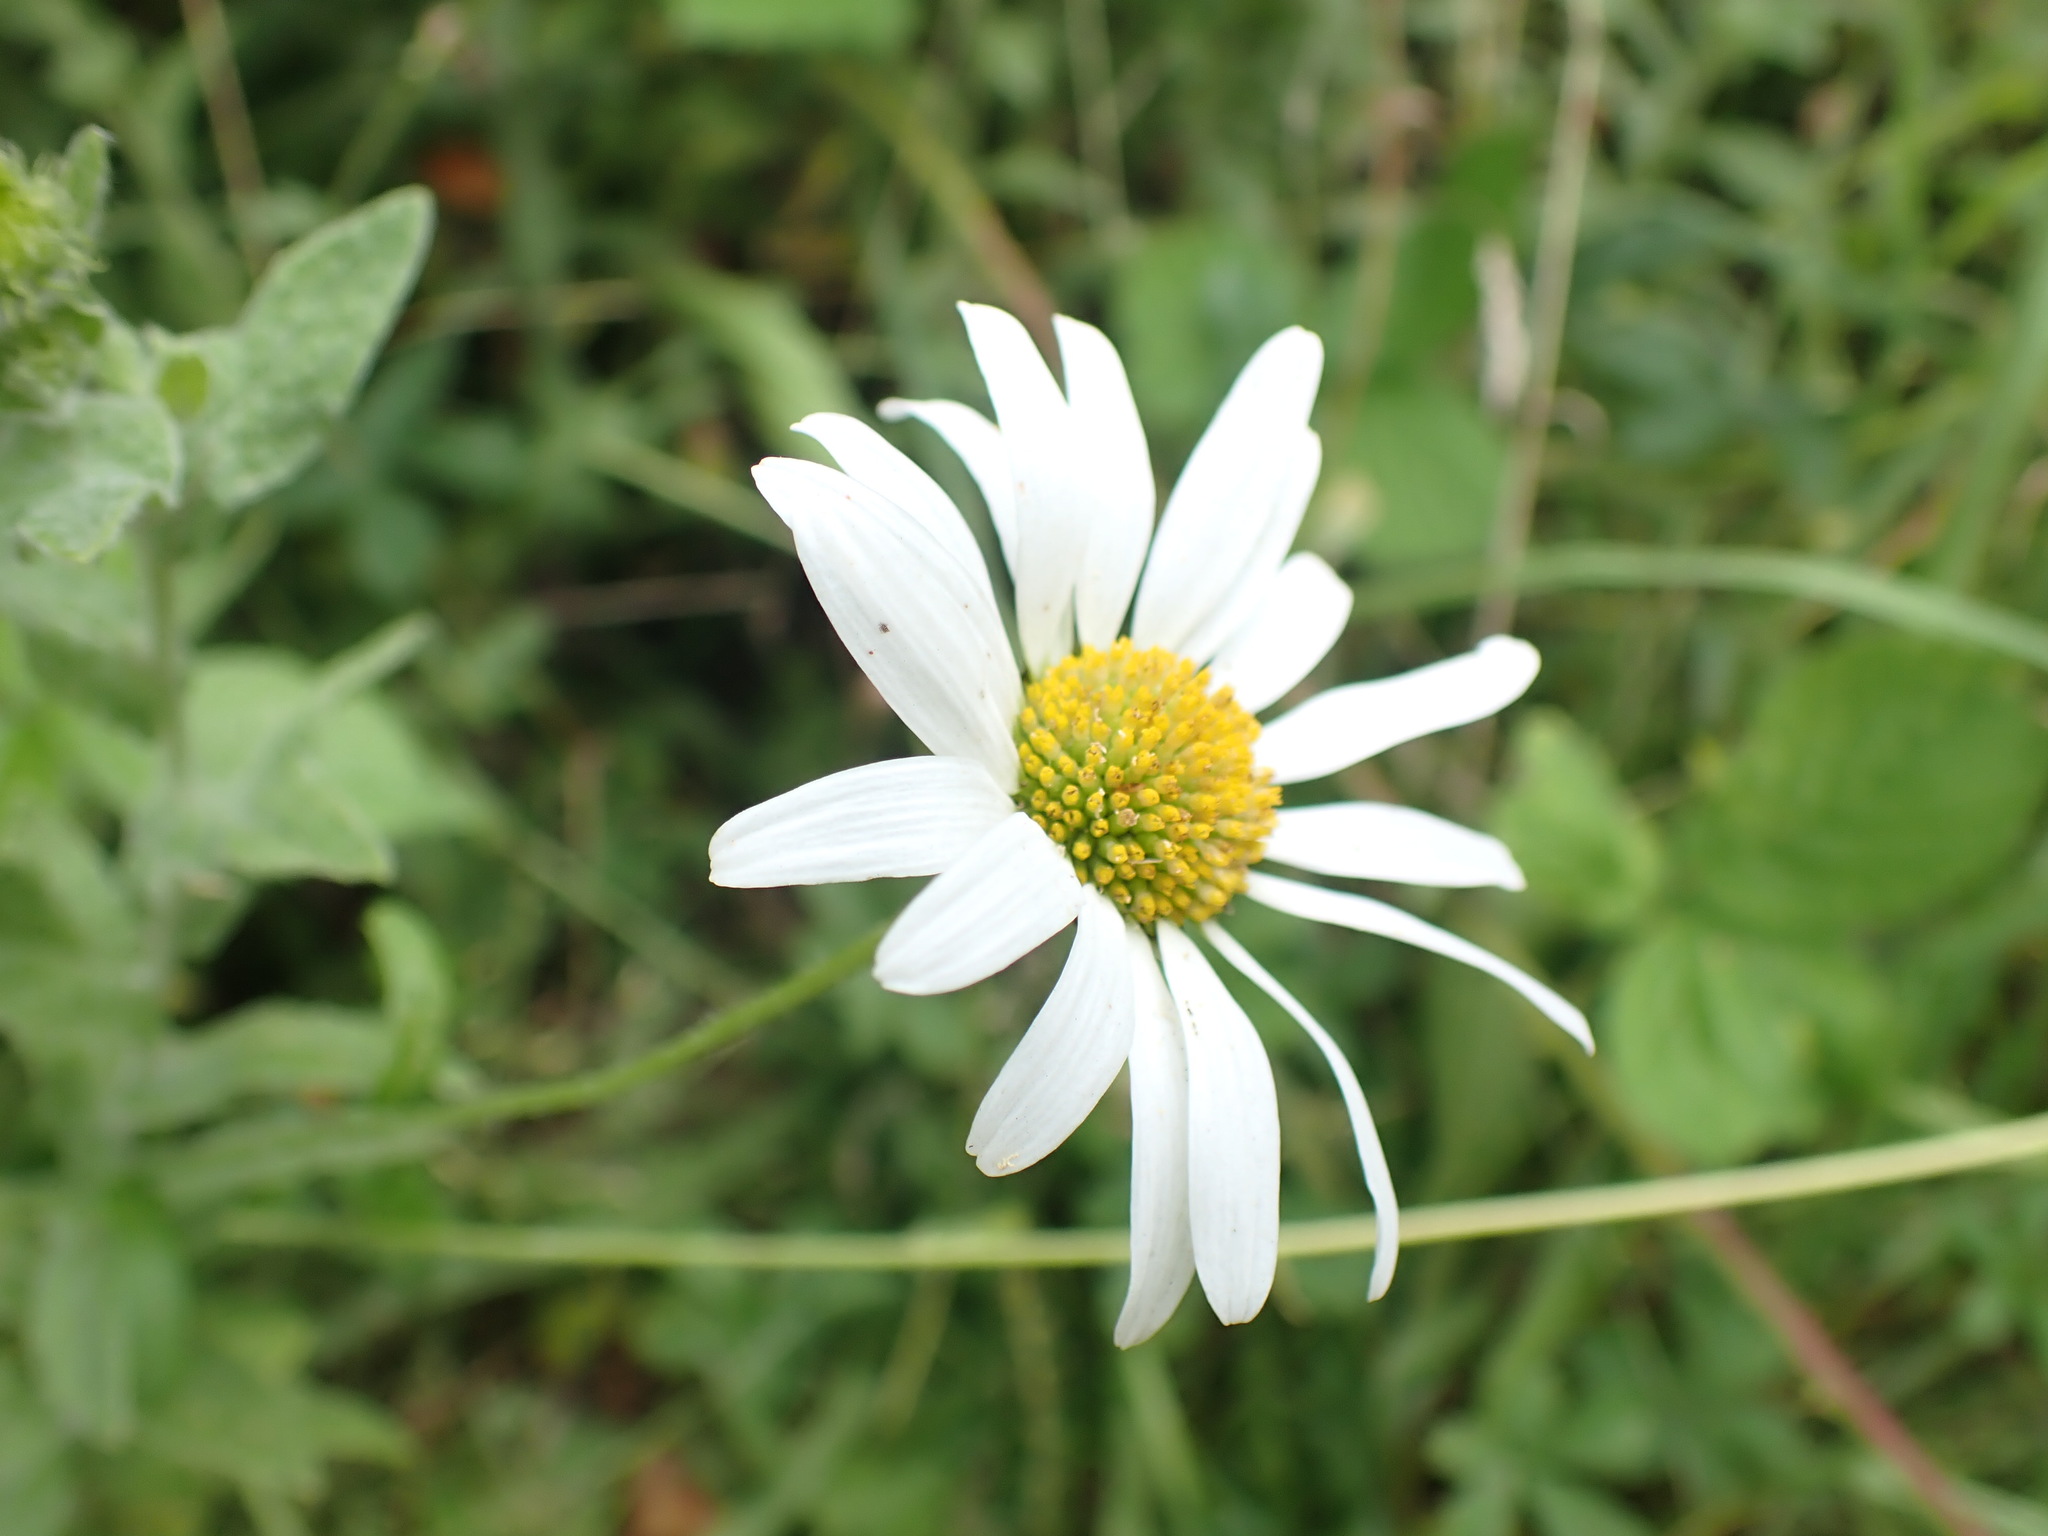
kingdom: Plantae
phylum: Tracheophyta
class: Magnoliopsida
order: Asterales
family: Asteraceae
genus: Leucanthemum
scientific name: Leucanthemum vulgare
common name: Oxeye daisy
